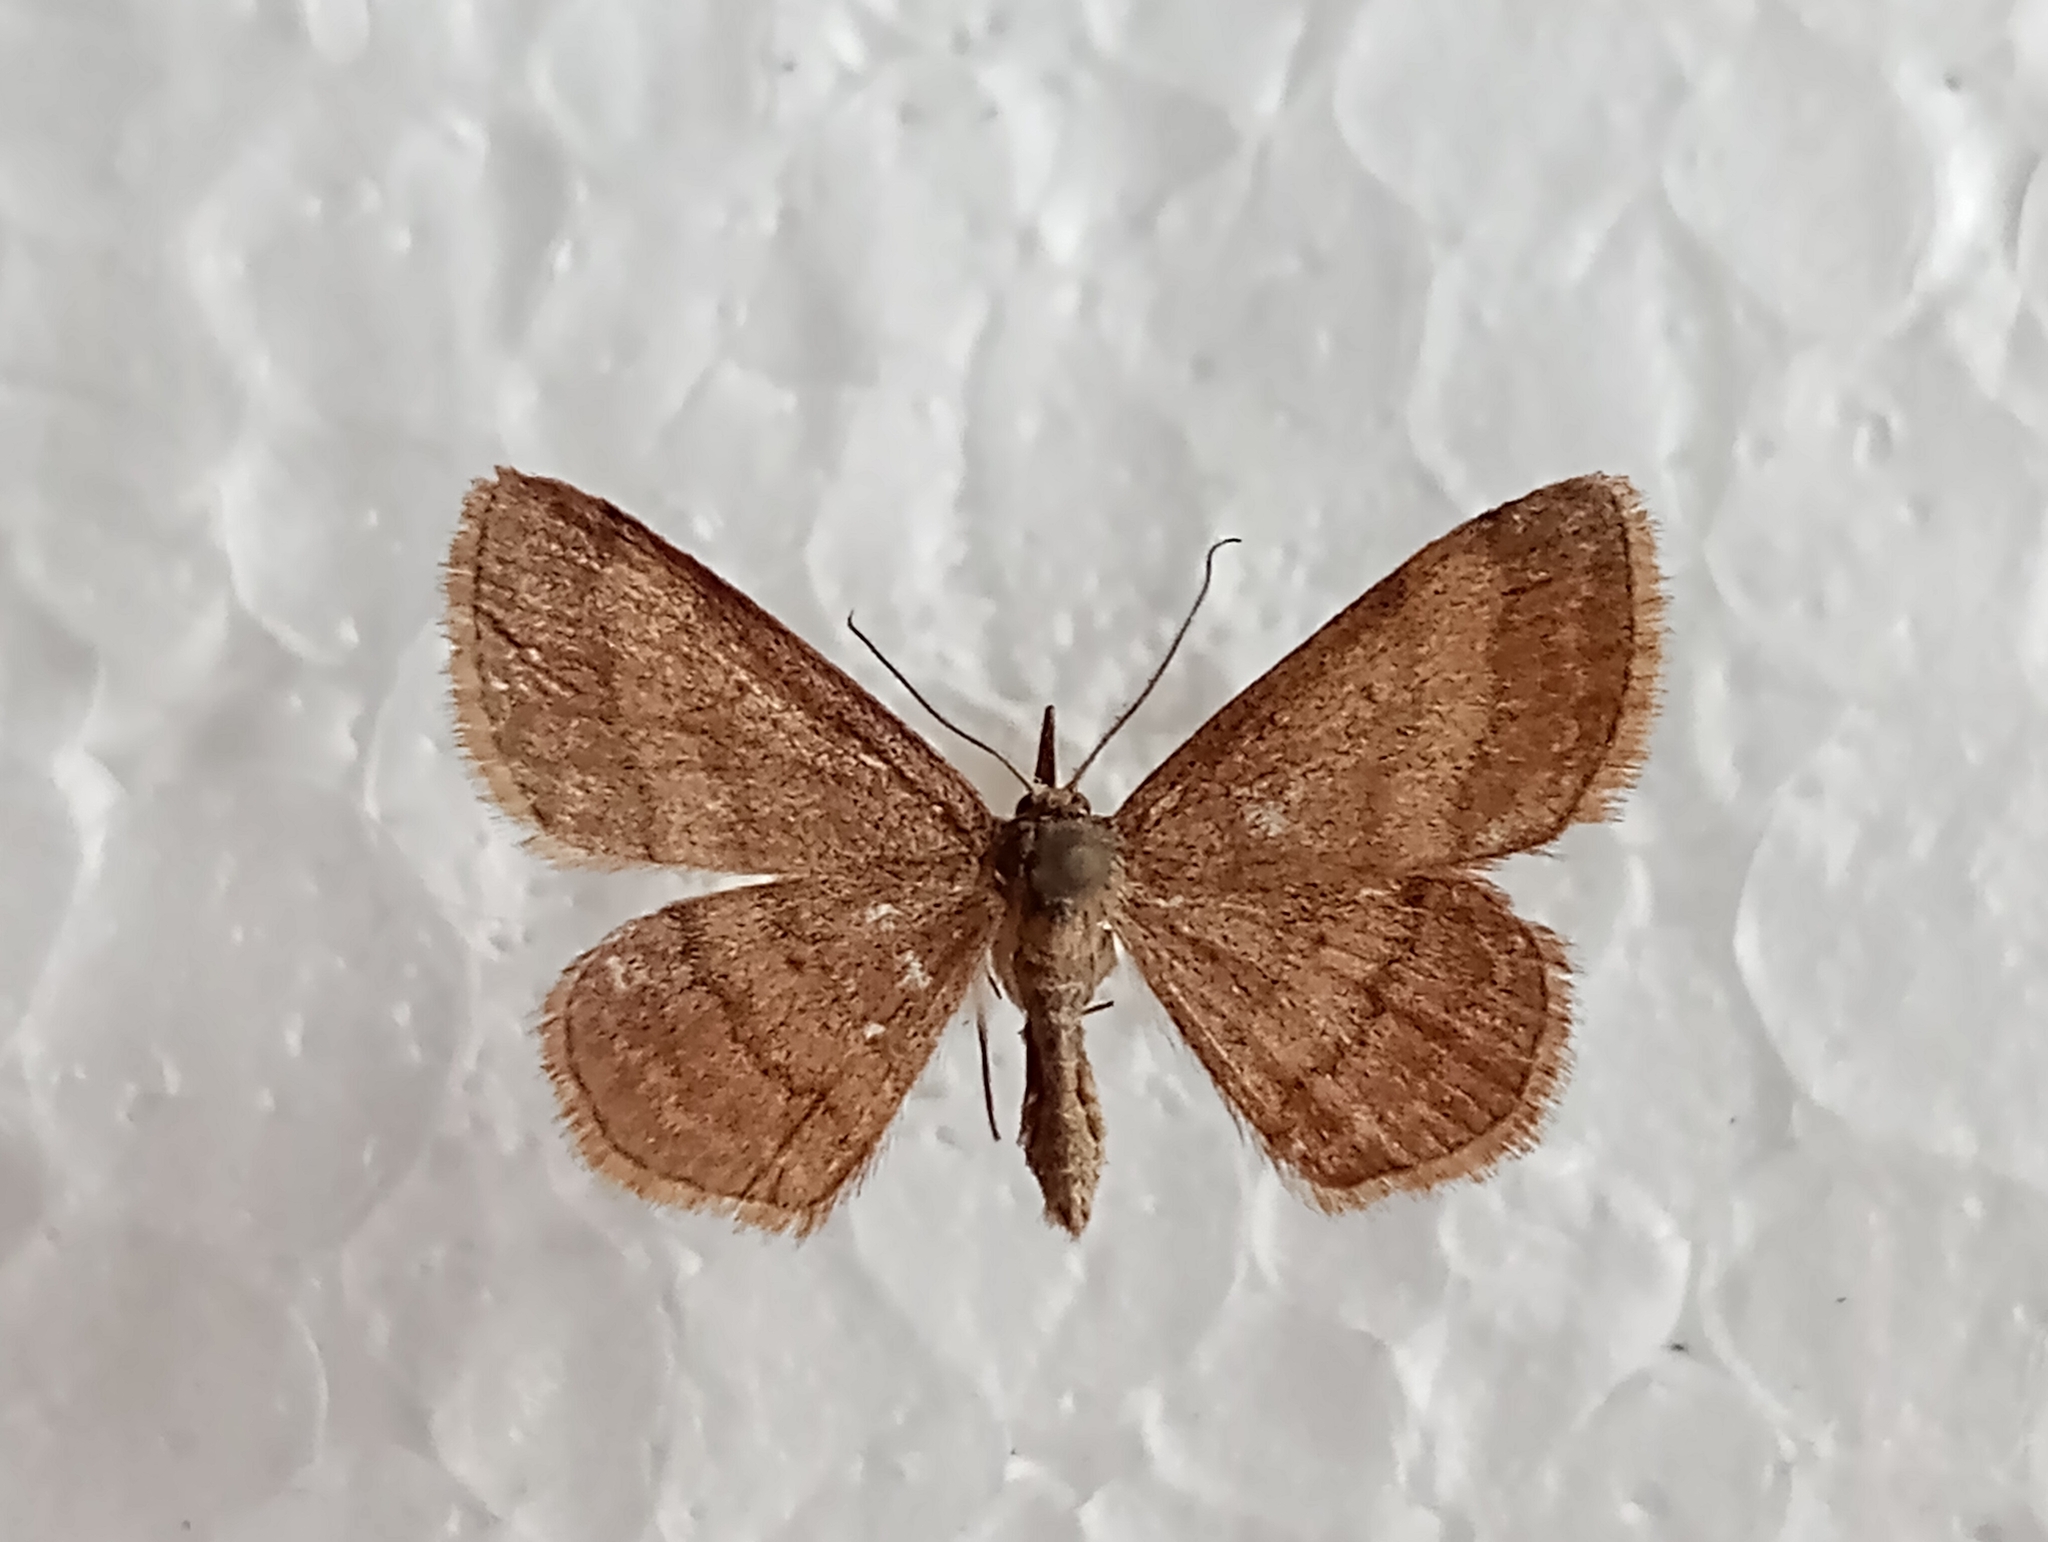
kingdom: Animalia
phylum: Arthropoda
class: Insecta
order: Lepidoptera
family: Geometridae
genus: Scopula
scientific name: Scopula rubiginata
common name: Tawny wave
